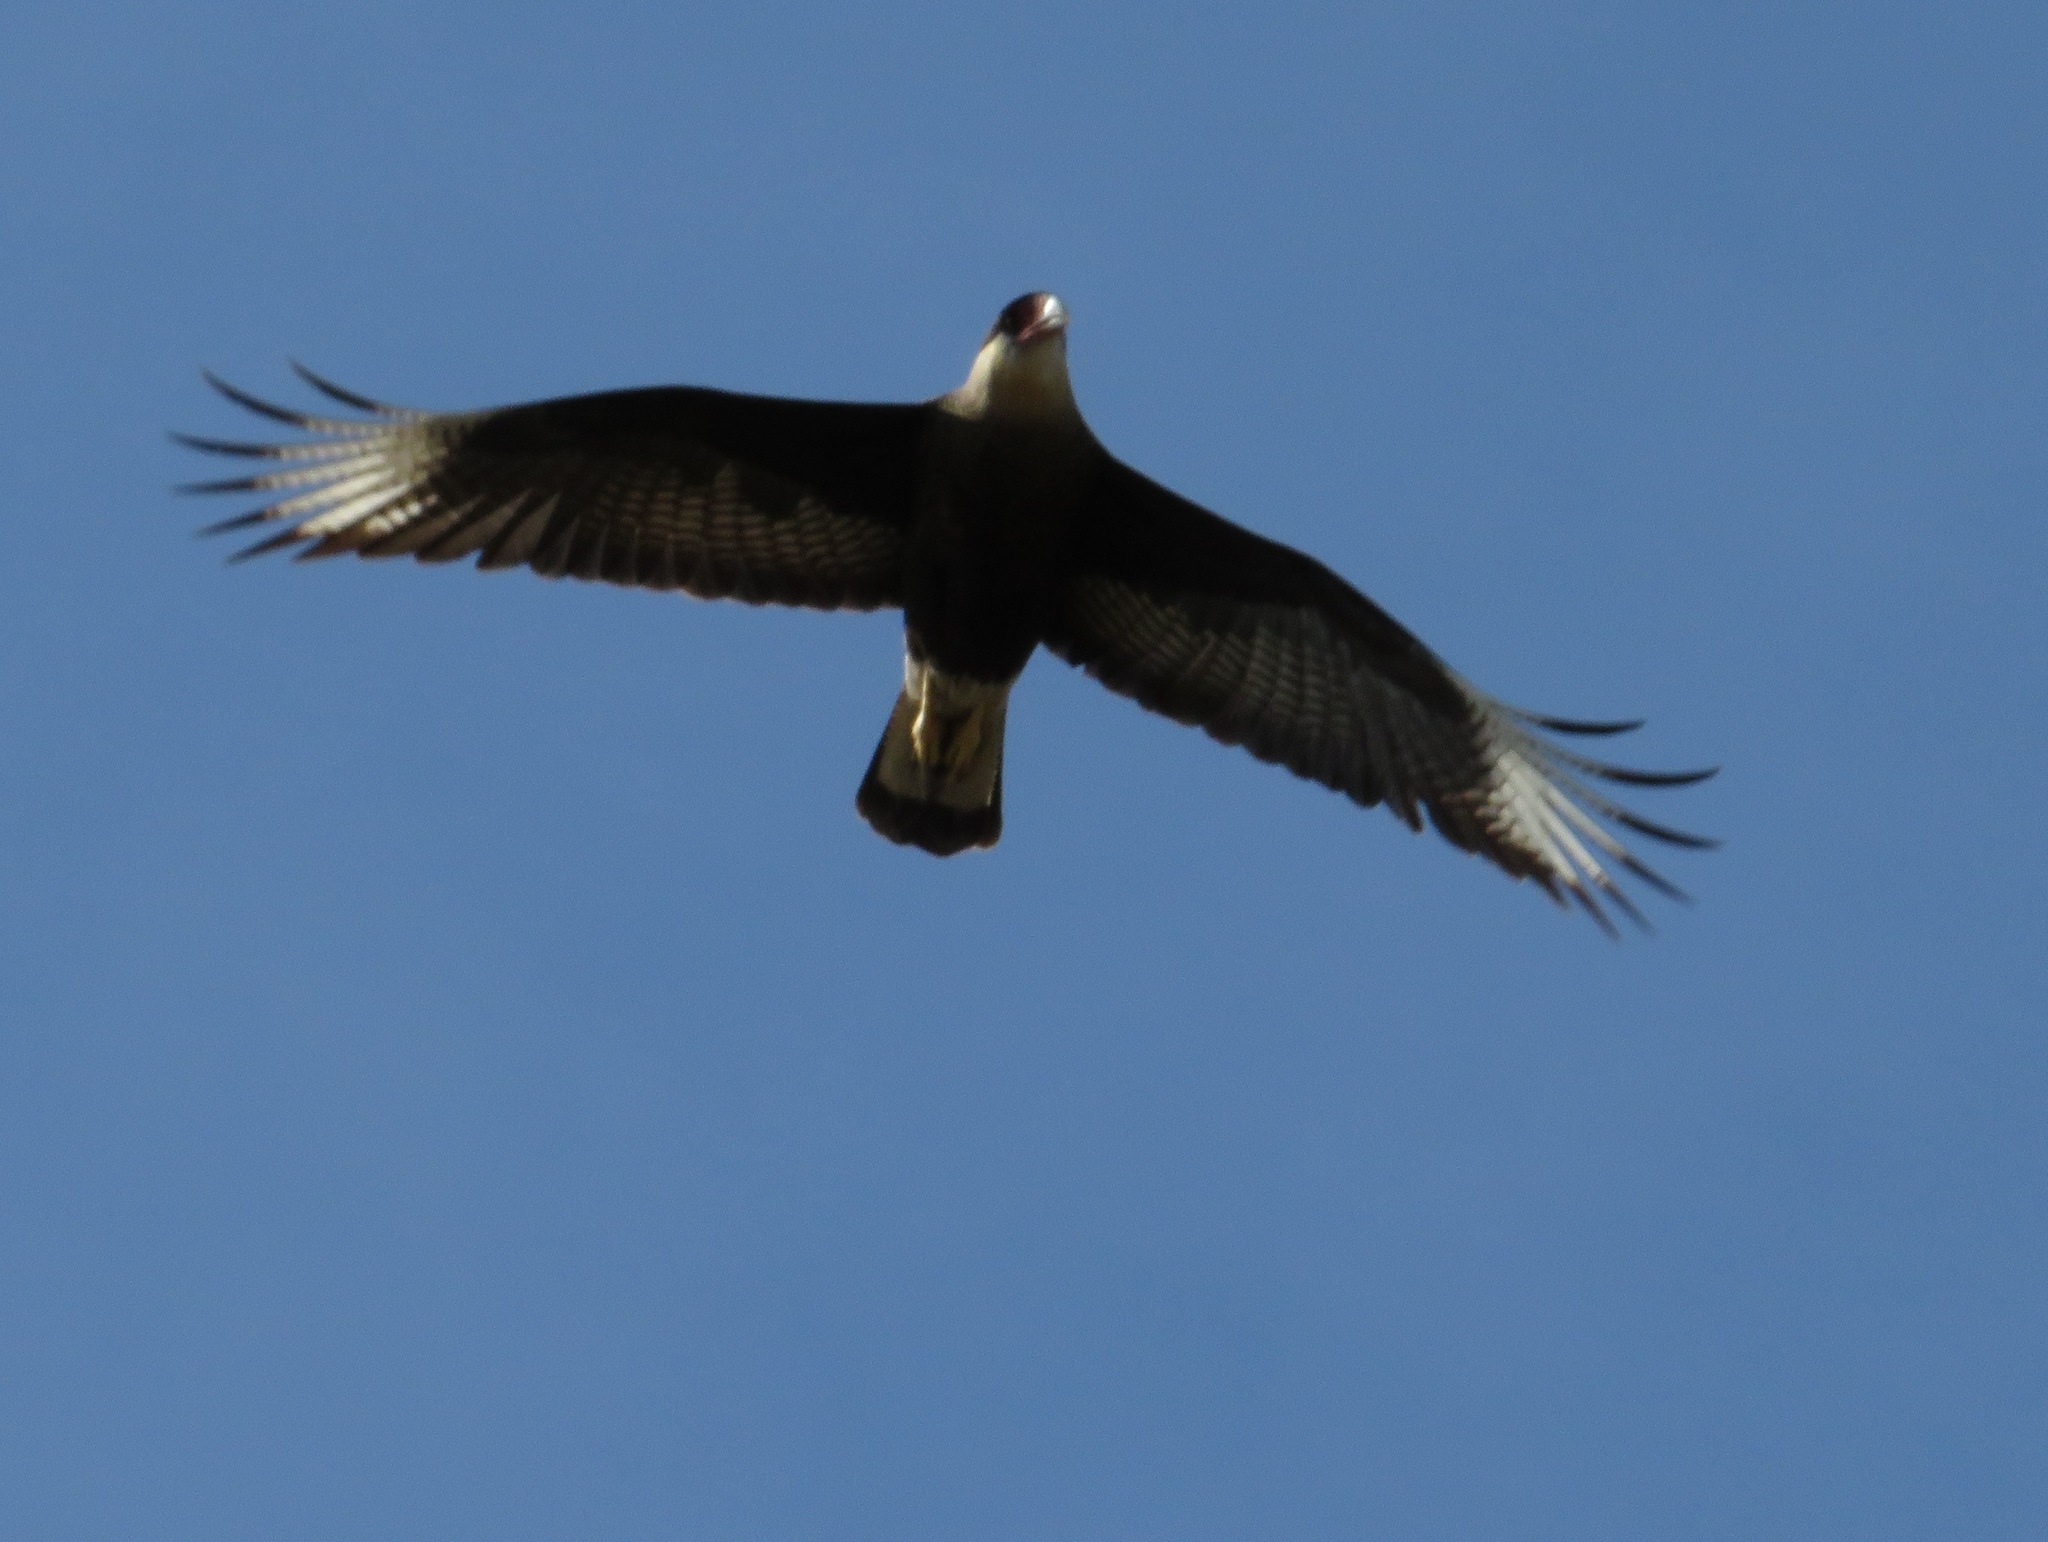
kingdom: Animalia
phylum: Chordata
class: Aves
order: Falconiformes
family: Falconidae
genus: Caracara
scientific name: Caracara plancus
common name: Southern caracara
